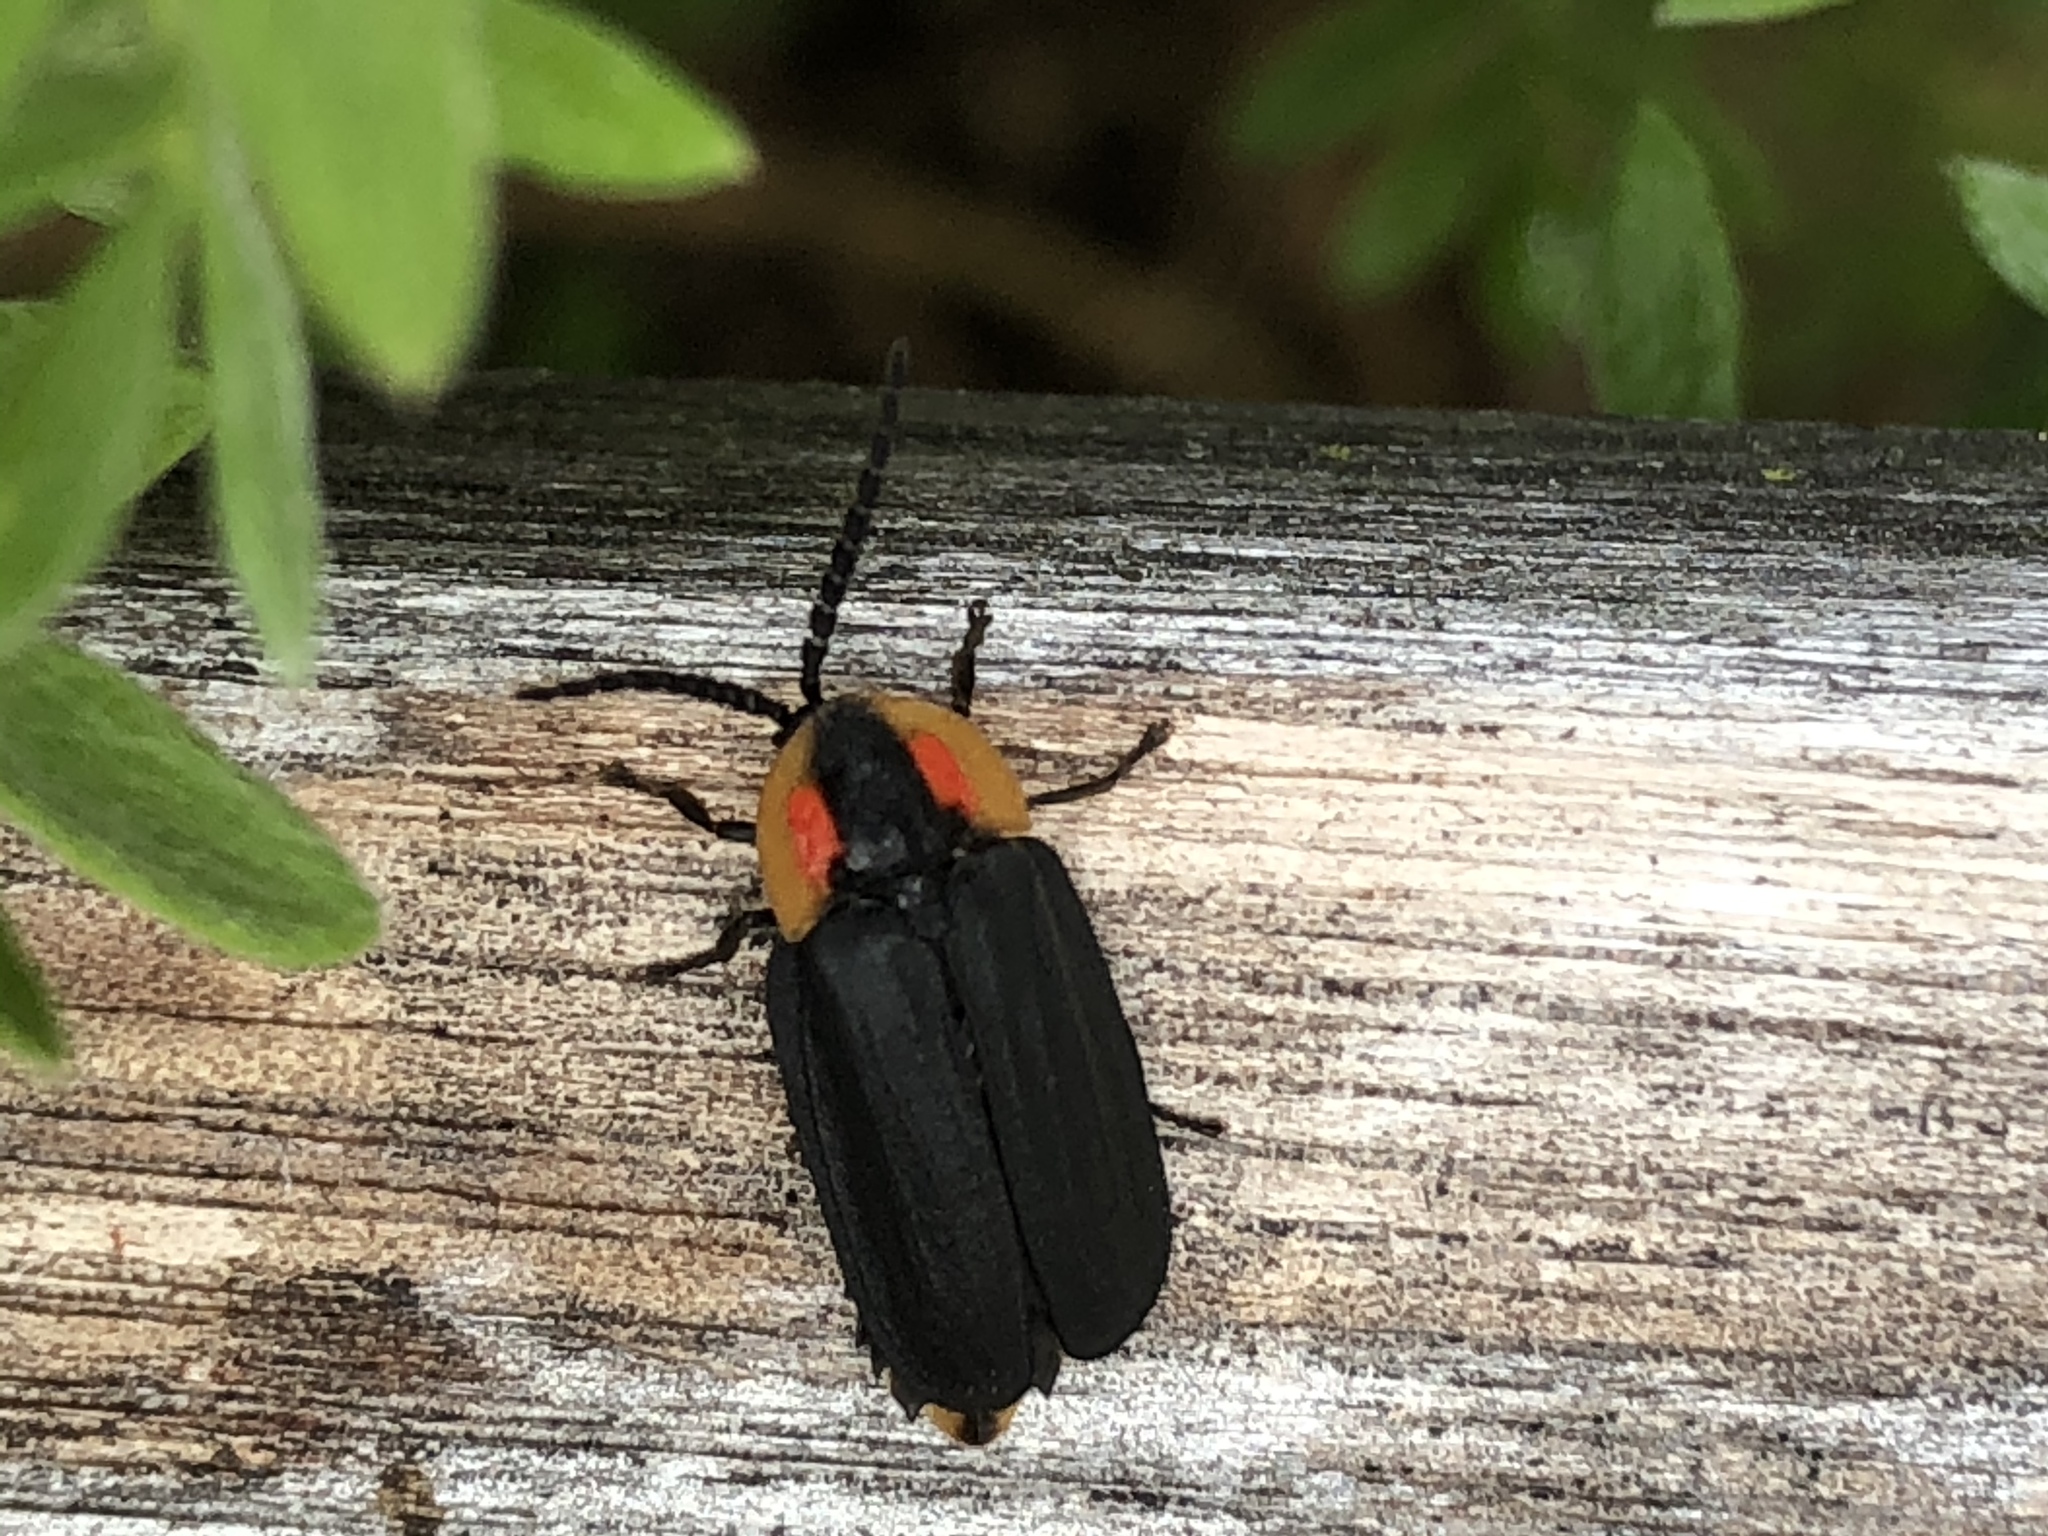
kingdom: Animalia
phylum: Arthropoda
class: Insecta
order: Coleoptera
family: Lampyridae
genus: Lucidota
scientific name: Lucidota atra
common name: Black firefly
